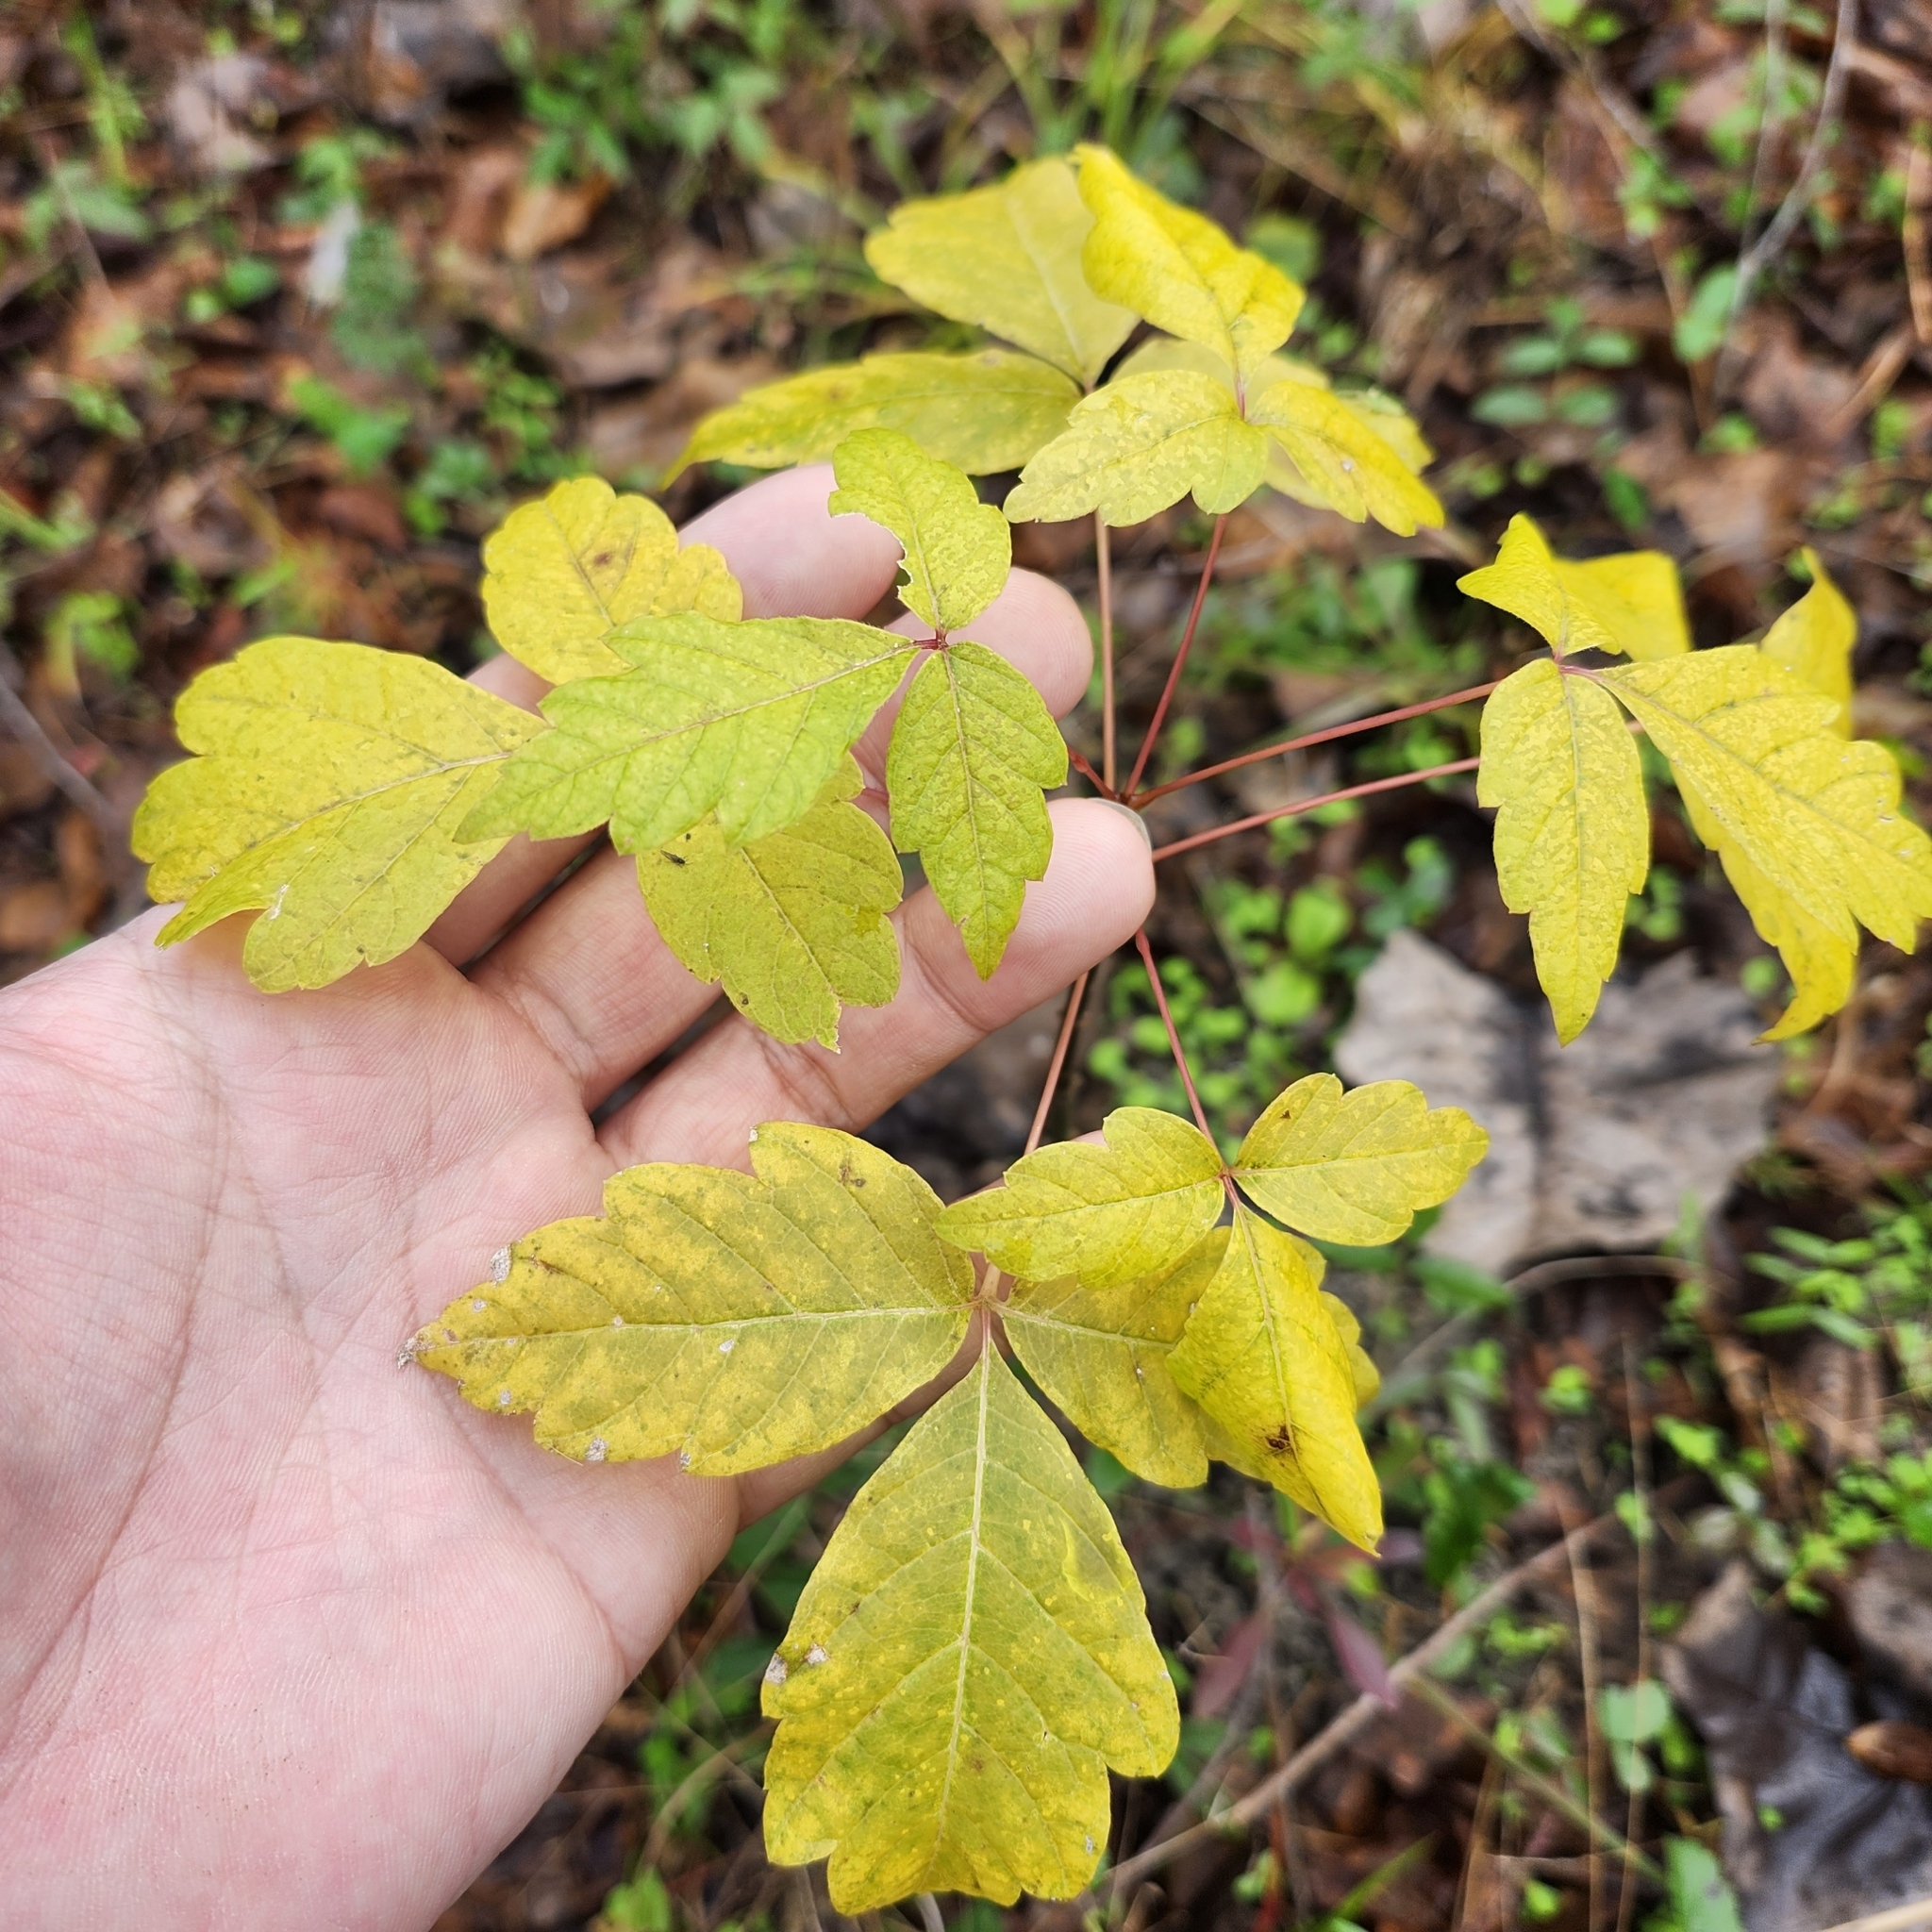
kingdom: Plantae
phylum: Tracheophyta
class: Magnoliopsida
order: Sapindales
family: Sapindaceae
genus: Acer
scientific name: Acer negundo
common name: Ashleaf maple
